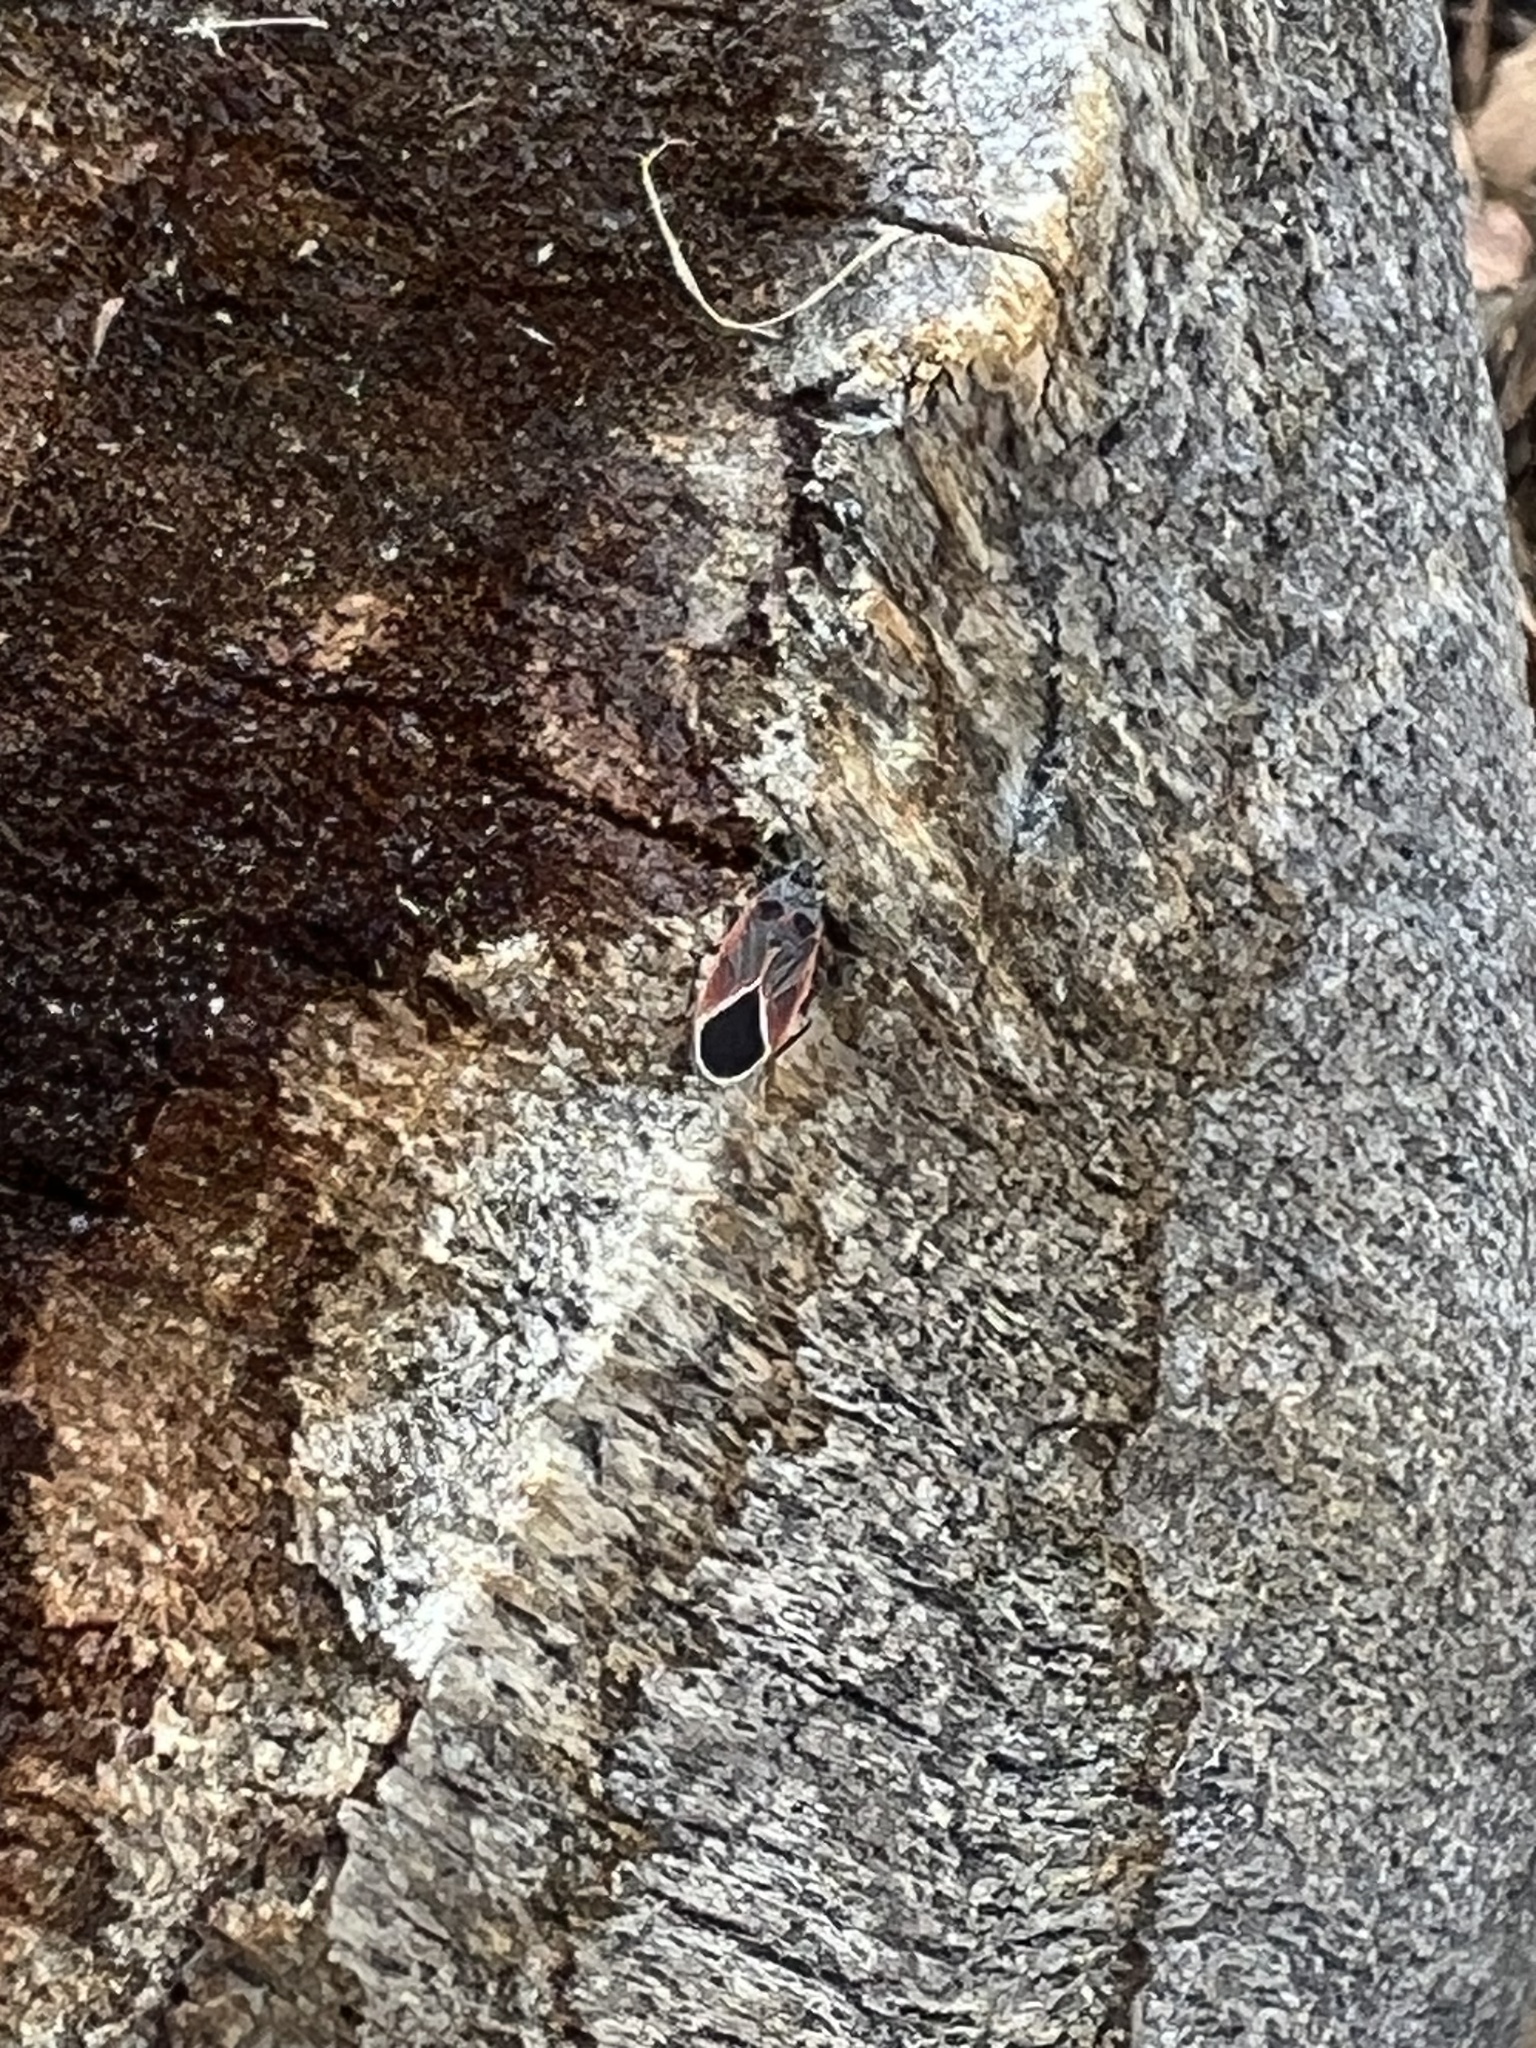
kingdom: Animalia
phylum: Arthropoda
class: Insecta
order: Hemiptera
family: Lygaeidae
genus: Melacoryphus
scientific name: Melacoryphus admirabilis
